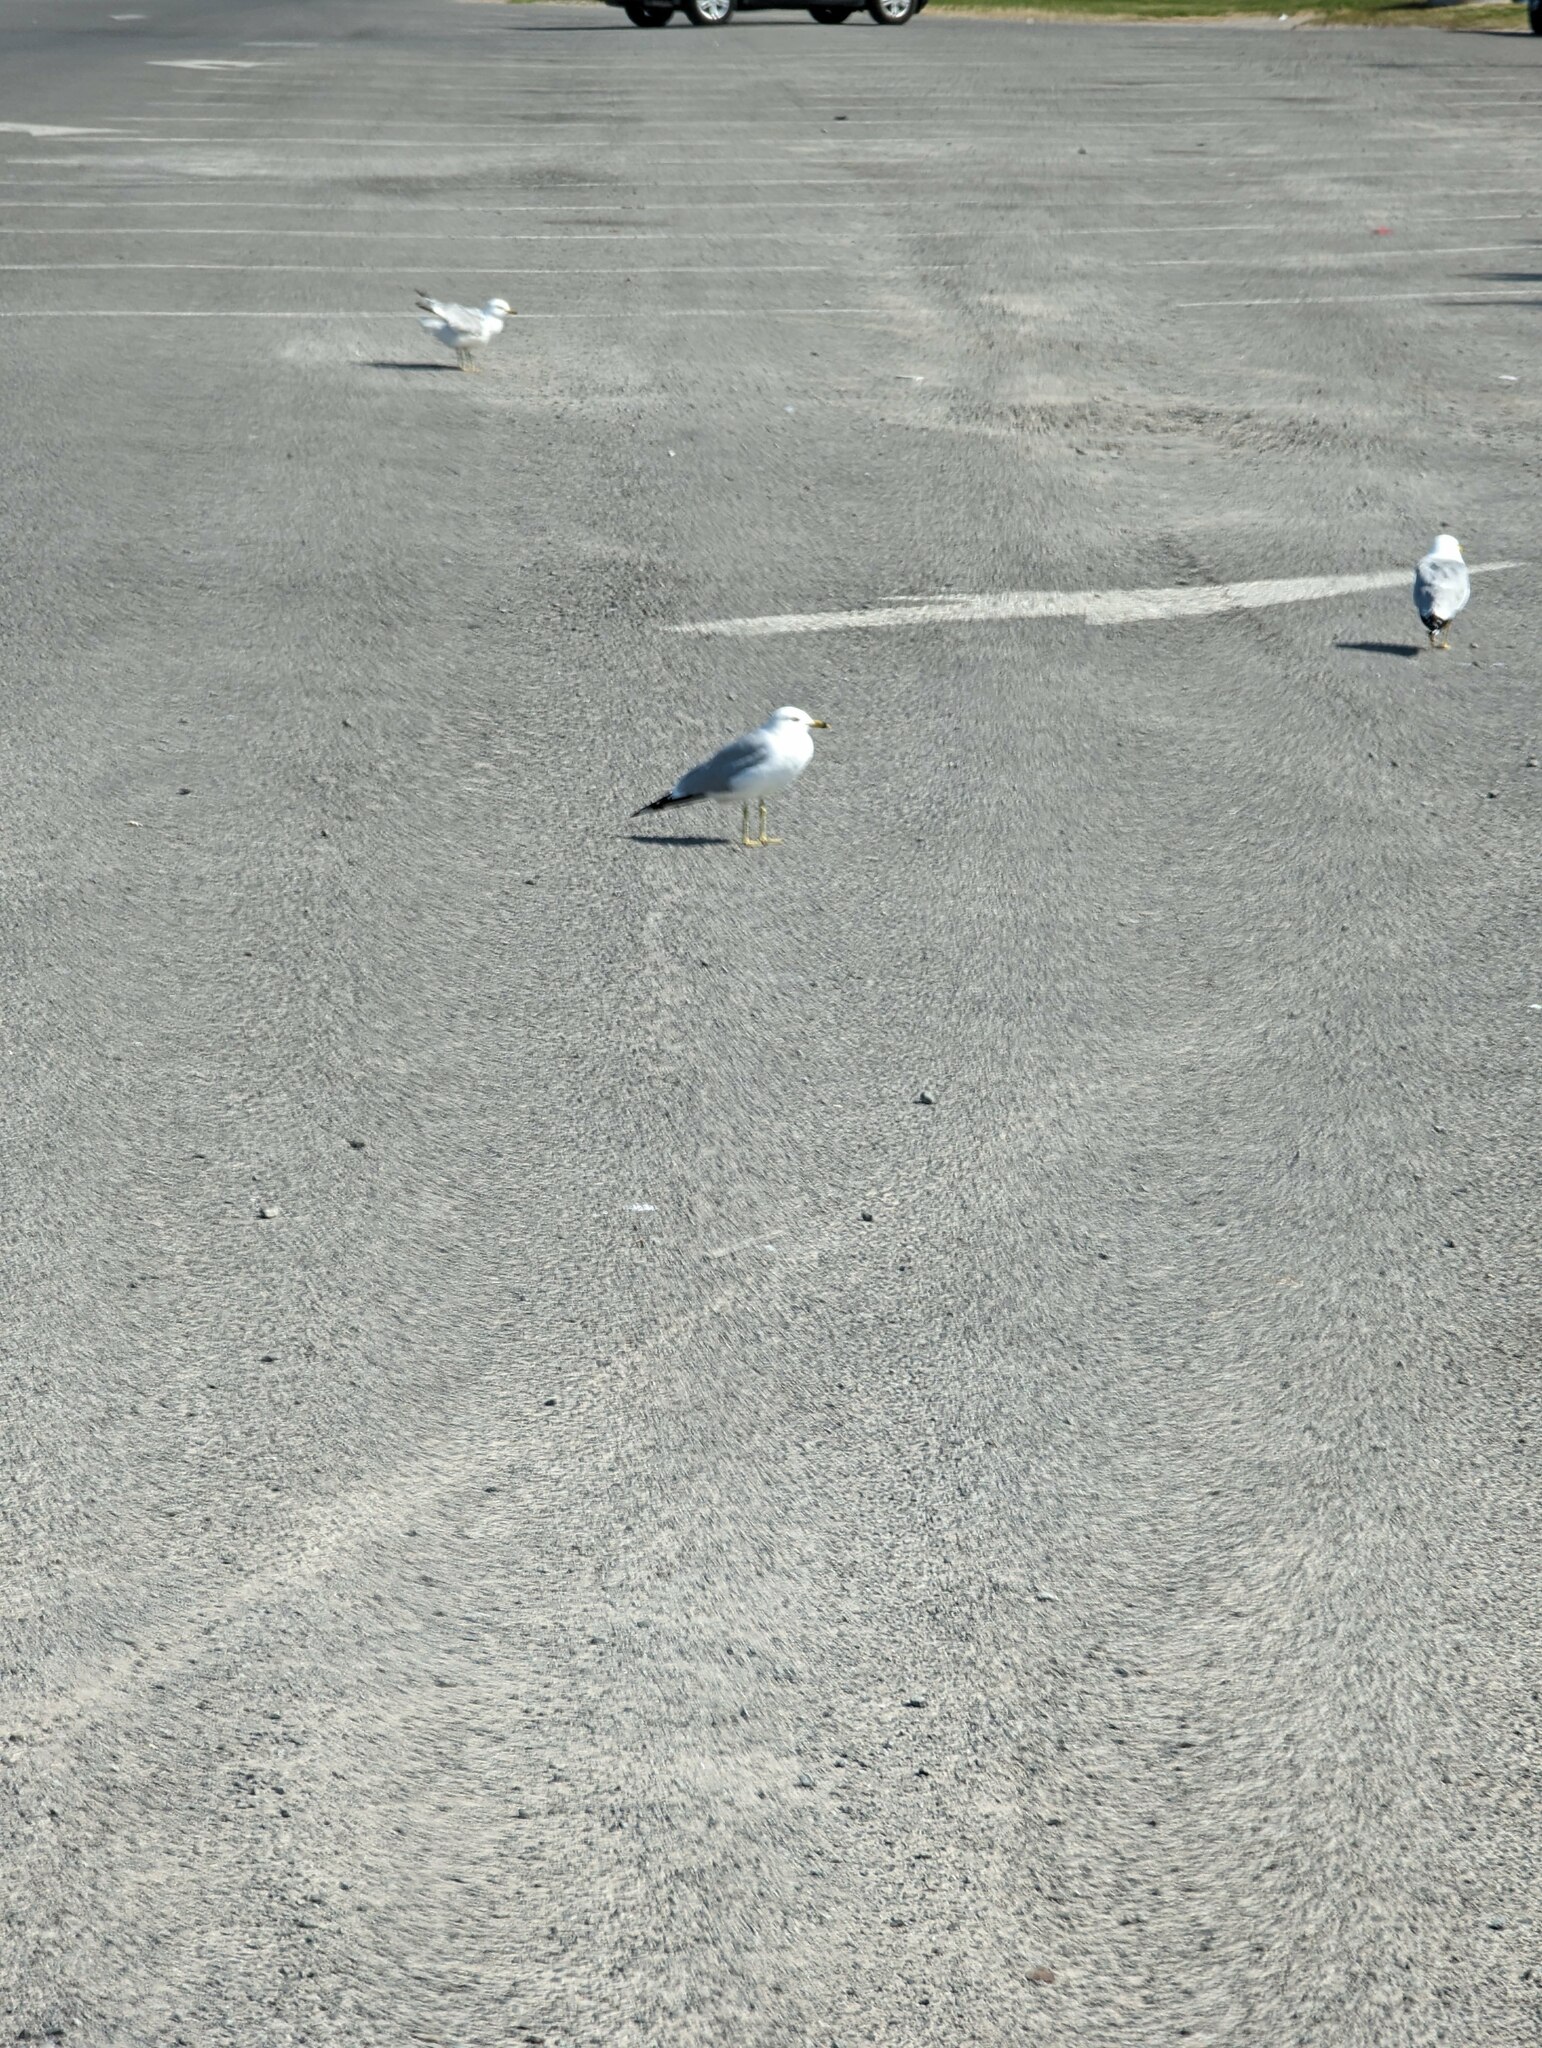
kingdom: Animalia
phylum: Chordata
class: Aves
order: Charadriiformes
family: Laridae
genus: Larus
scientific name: Larus delawarensis
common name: Ring-billed gull
